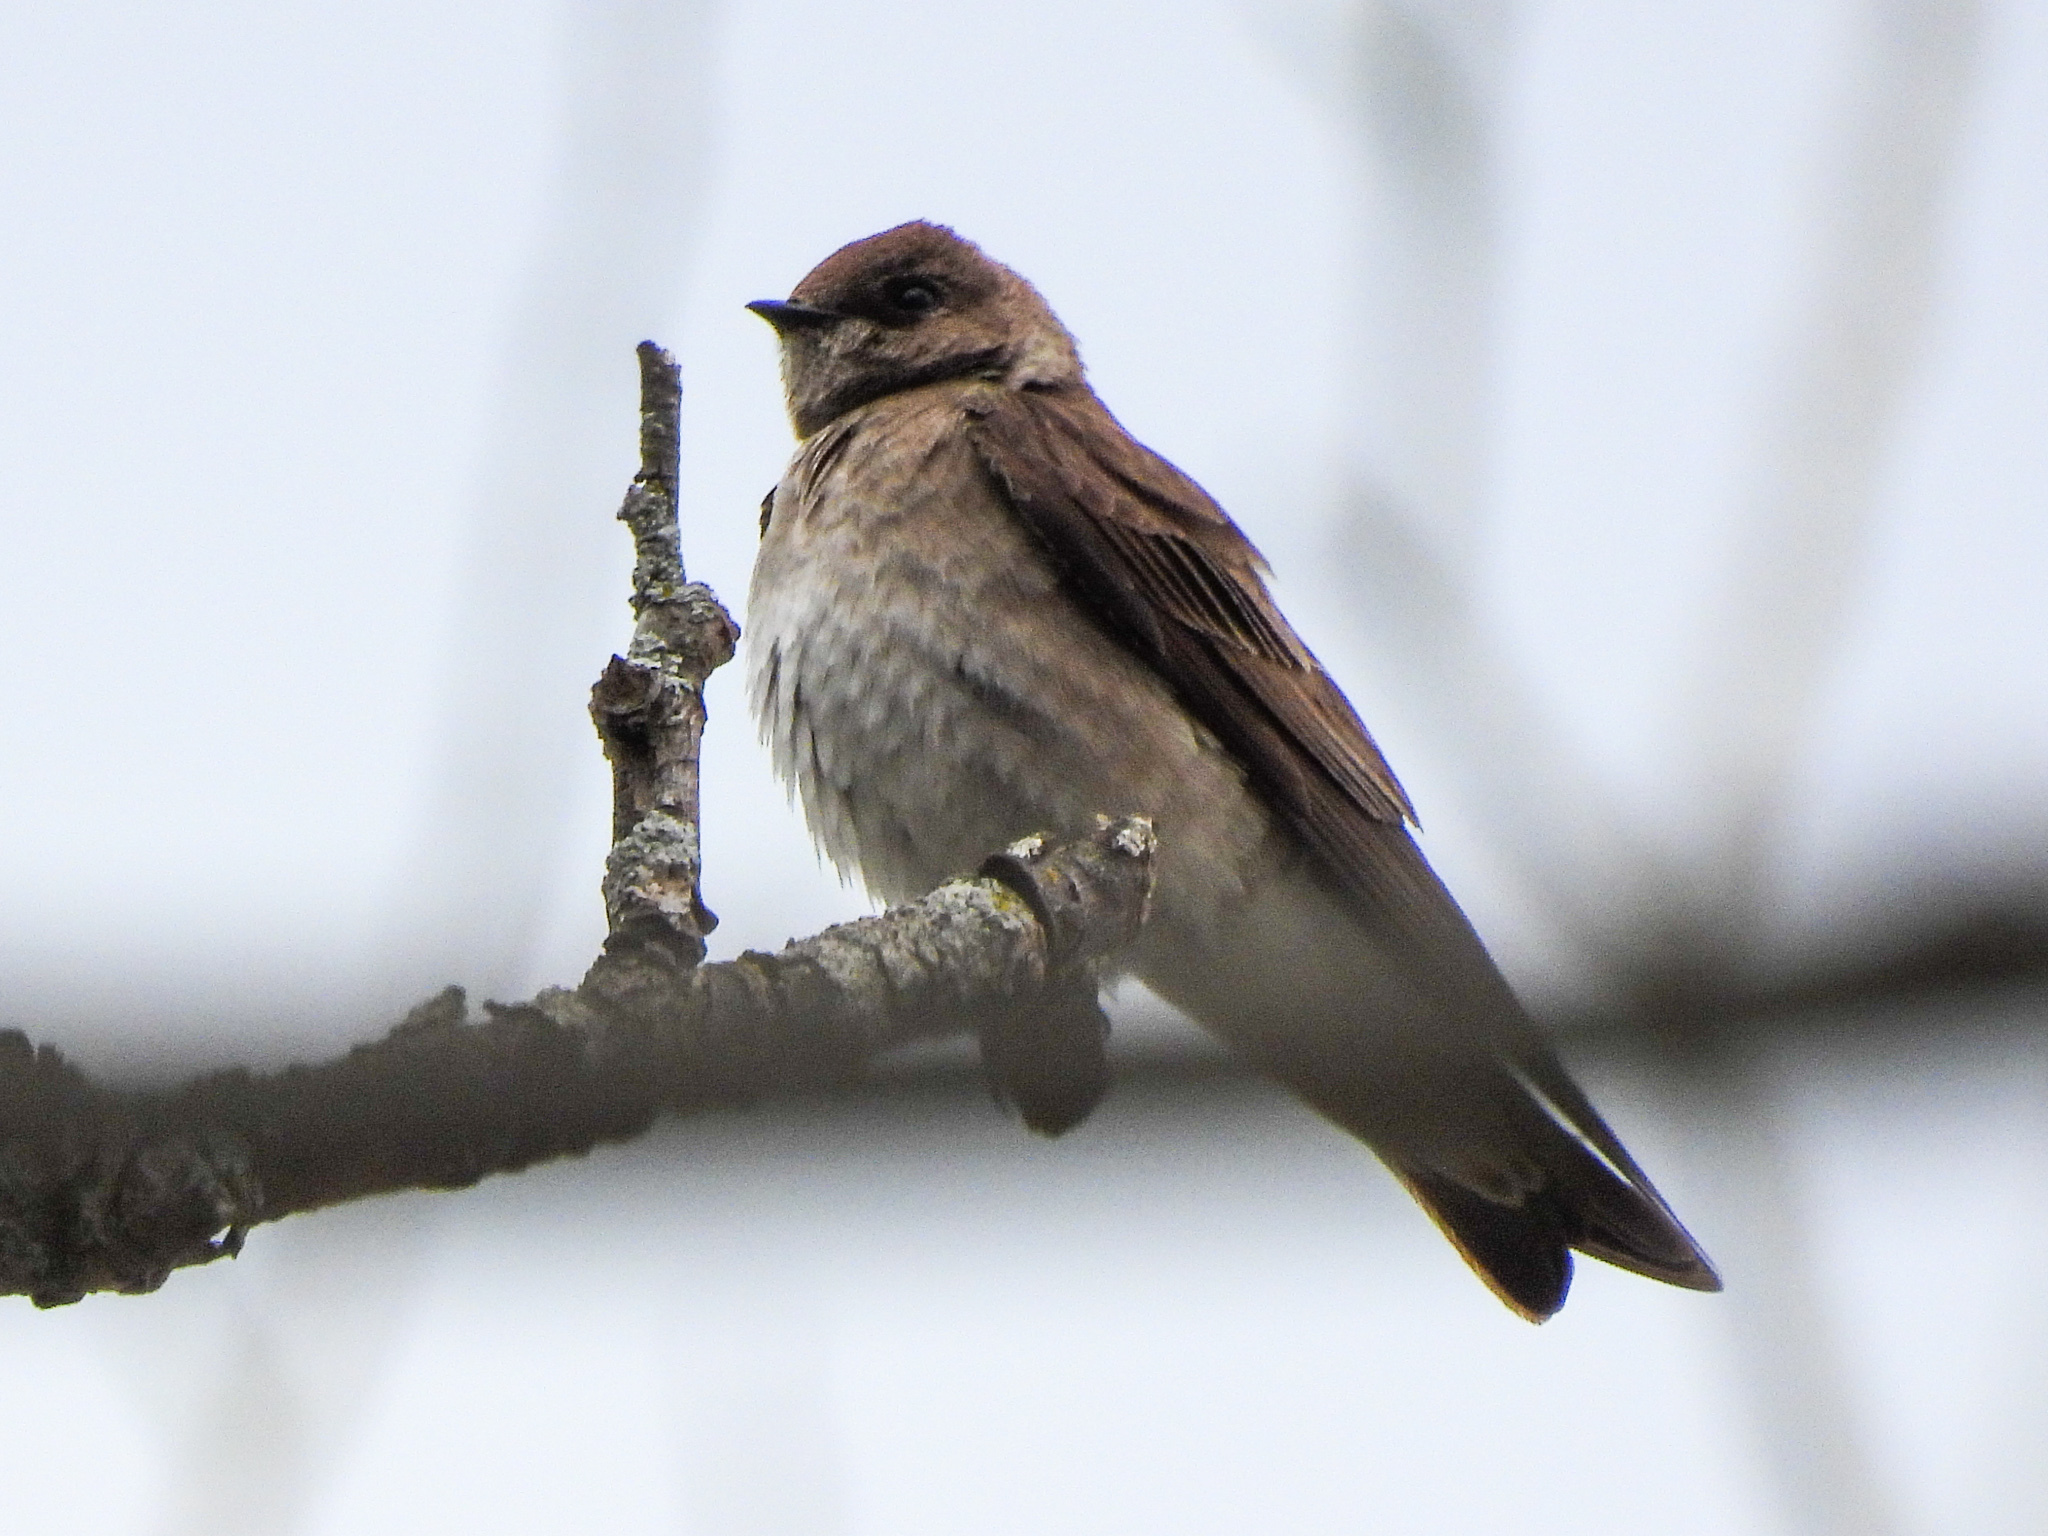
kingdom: Animalia
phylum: Chordata
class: Aves
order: Passeriformes
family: Hirundinidae
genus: Stelgidopteryx
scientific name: Stelgidopteryx serripennis
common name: Northern rough-winged swallow
